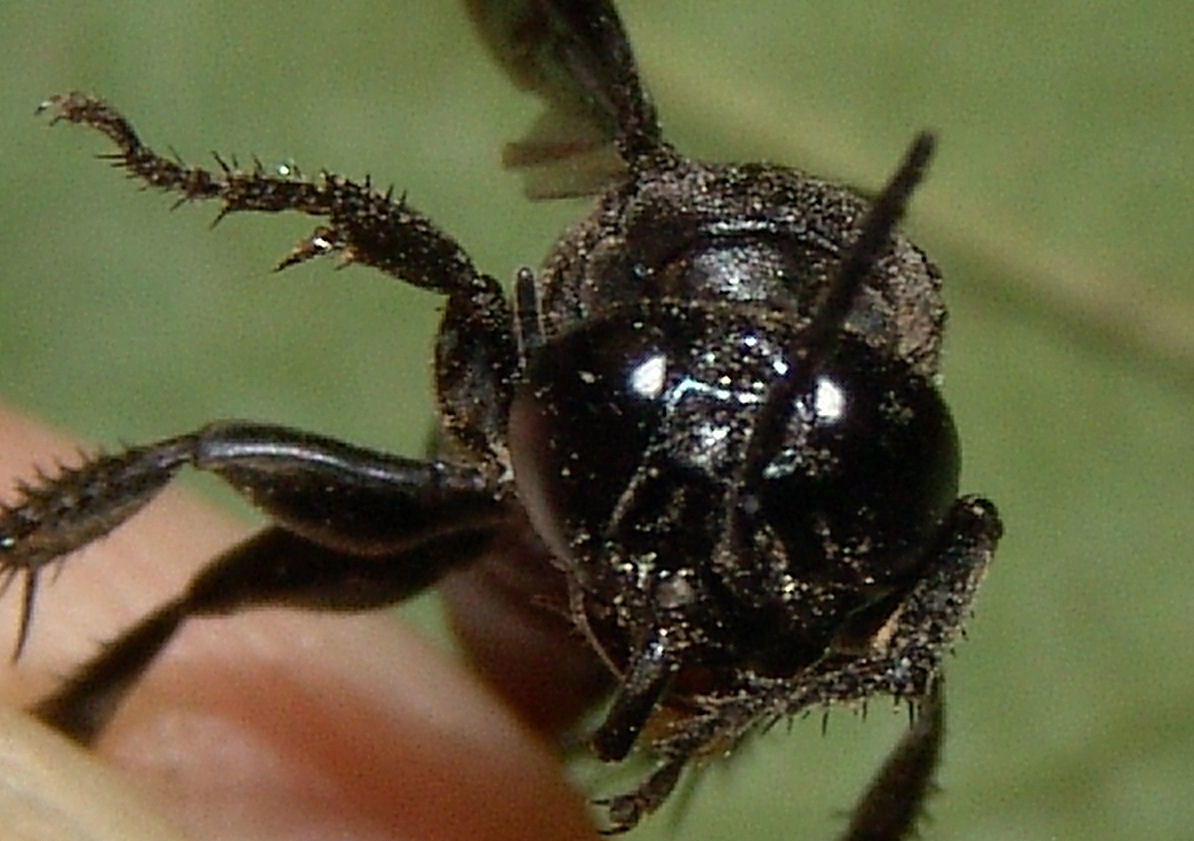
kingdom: Animalia
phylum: Arthropoda
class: Insecta
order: Hymenoptera
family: Crabronidae
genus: Larra
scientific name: Larra analis
